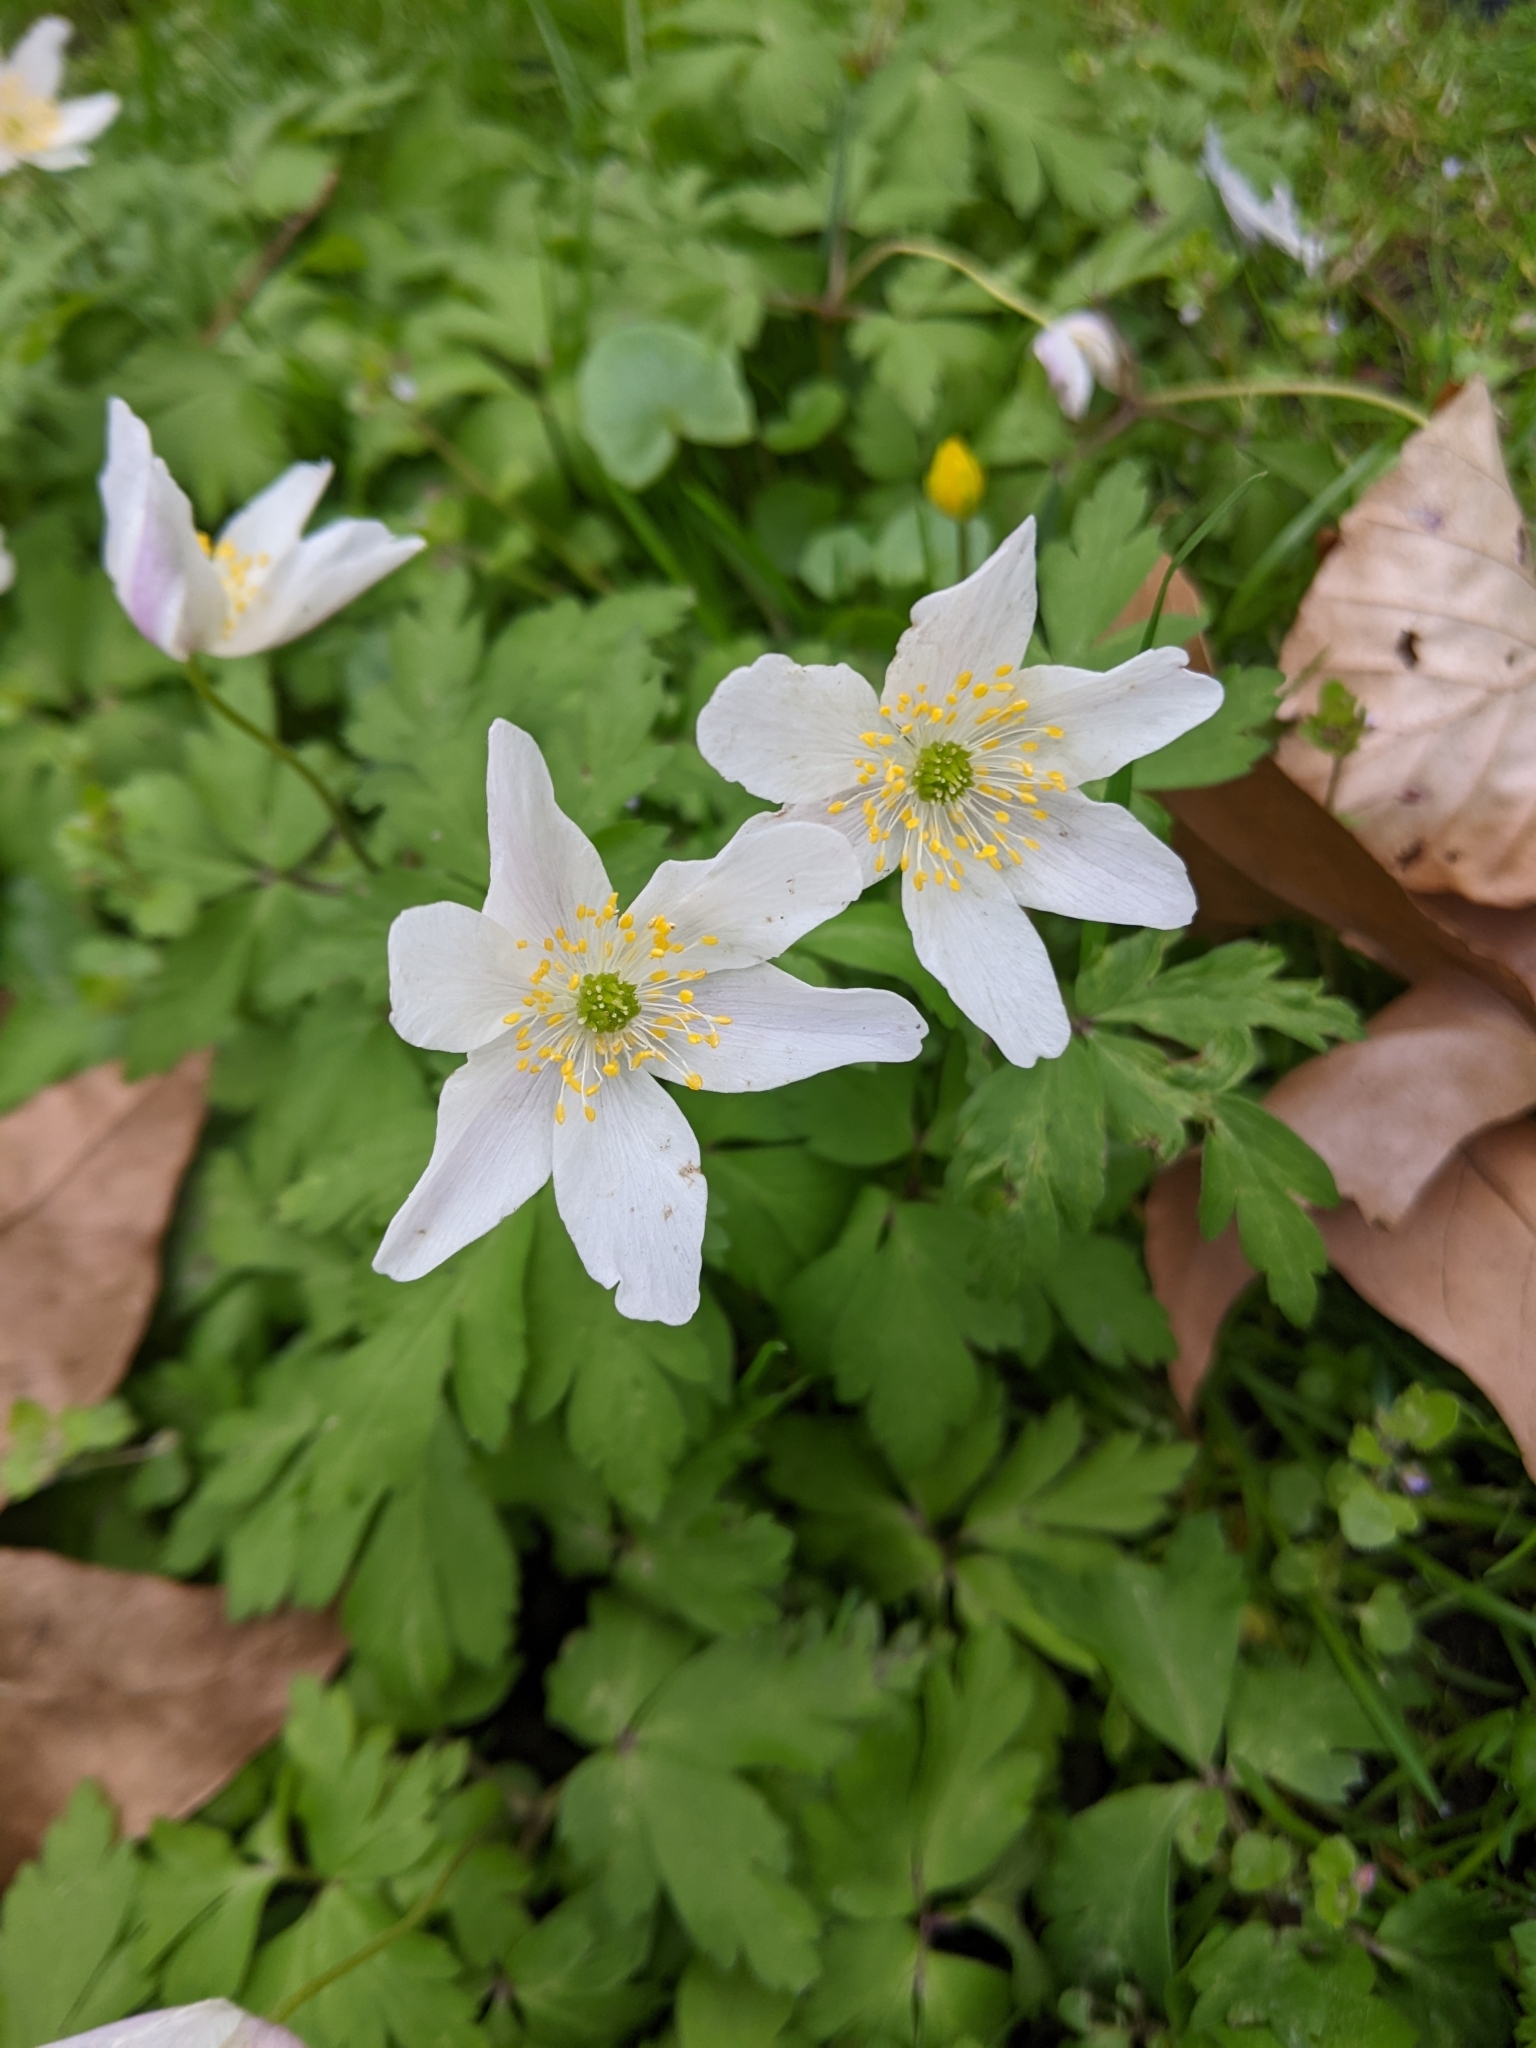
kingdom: Plantae
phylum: Tracheophyta
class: Magnoliopsida
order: Ranunculales
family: Ranunculaceae
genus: Anemone
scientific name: Anemone nemorosa
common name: Wood anemone
